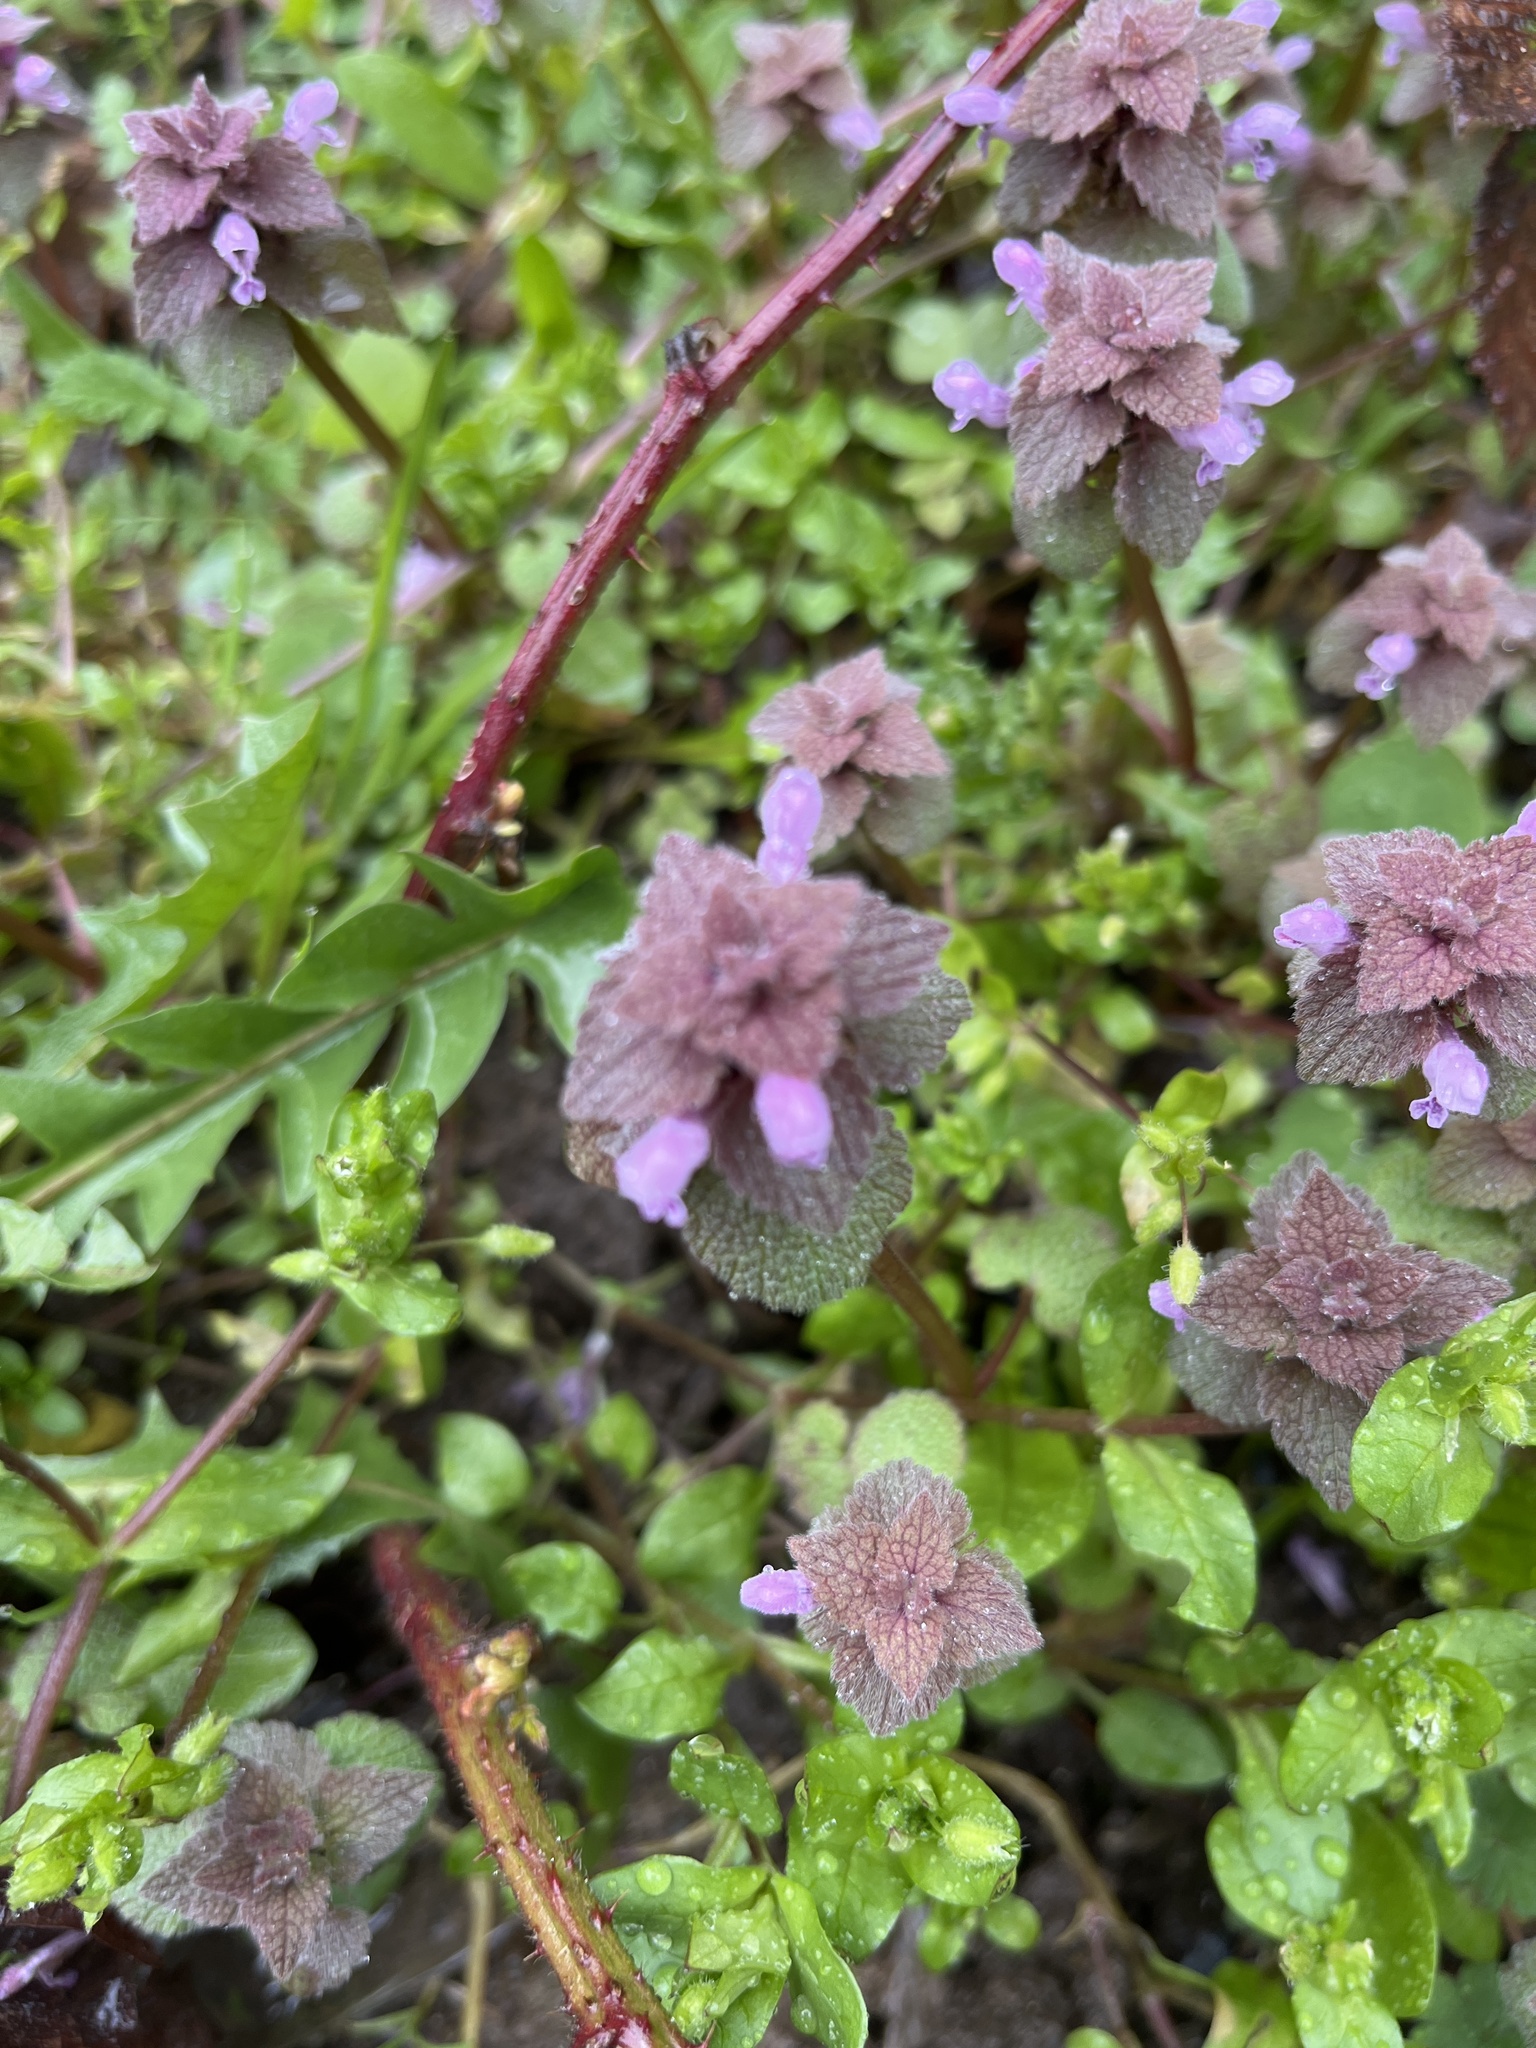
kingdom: Plantae
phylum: Tracheophyta
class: Magnoliopsida
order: Lamiales
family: Lamiaceae
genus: Lamium
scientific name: Lamium purpureum
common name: Red dead-nettle
